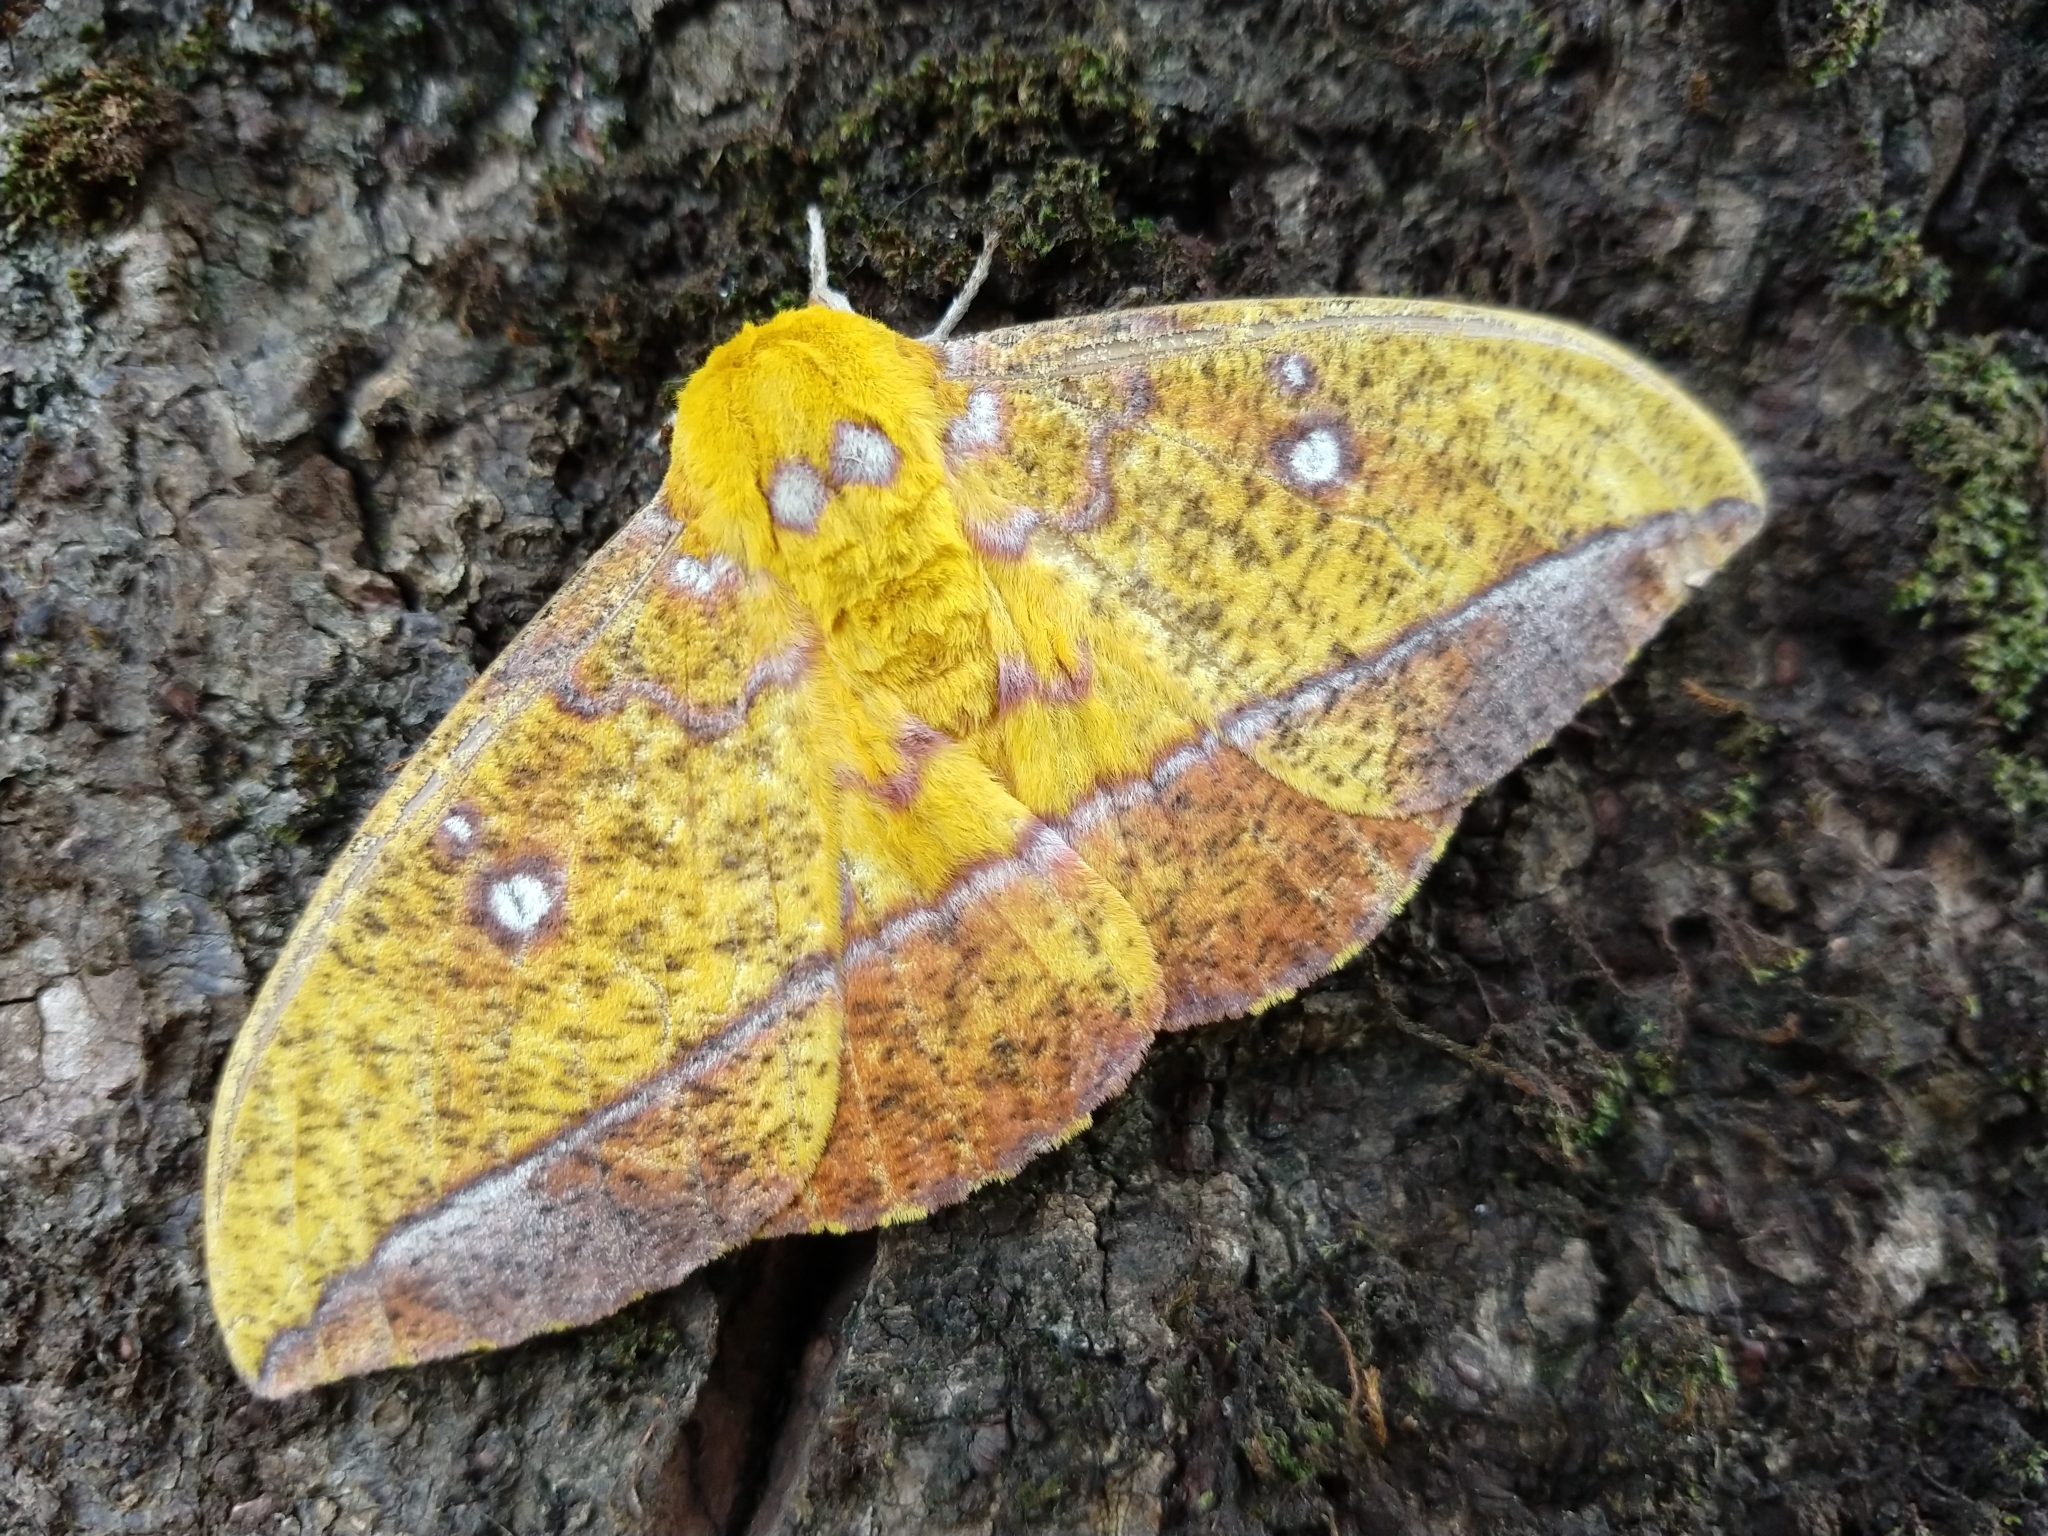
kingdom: Animalia
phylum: Arthropoda
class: Insecta
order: Lepidoptera
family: Saturniidae
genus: Eacles
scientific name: Eacles ducalis
